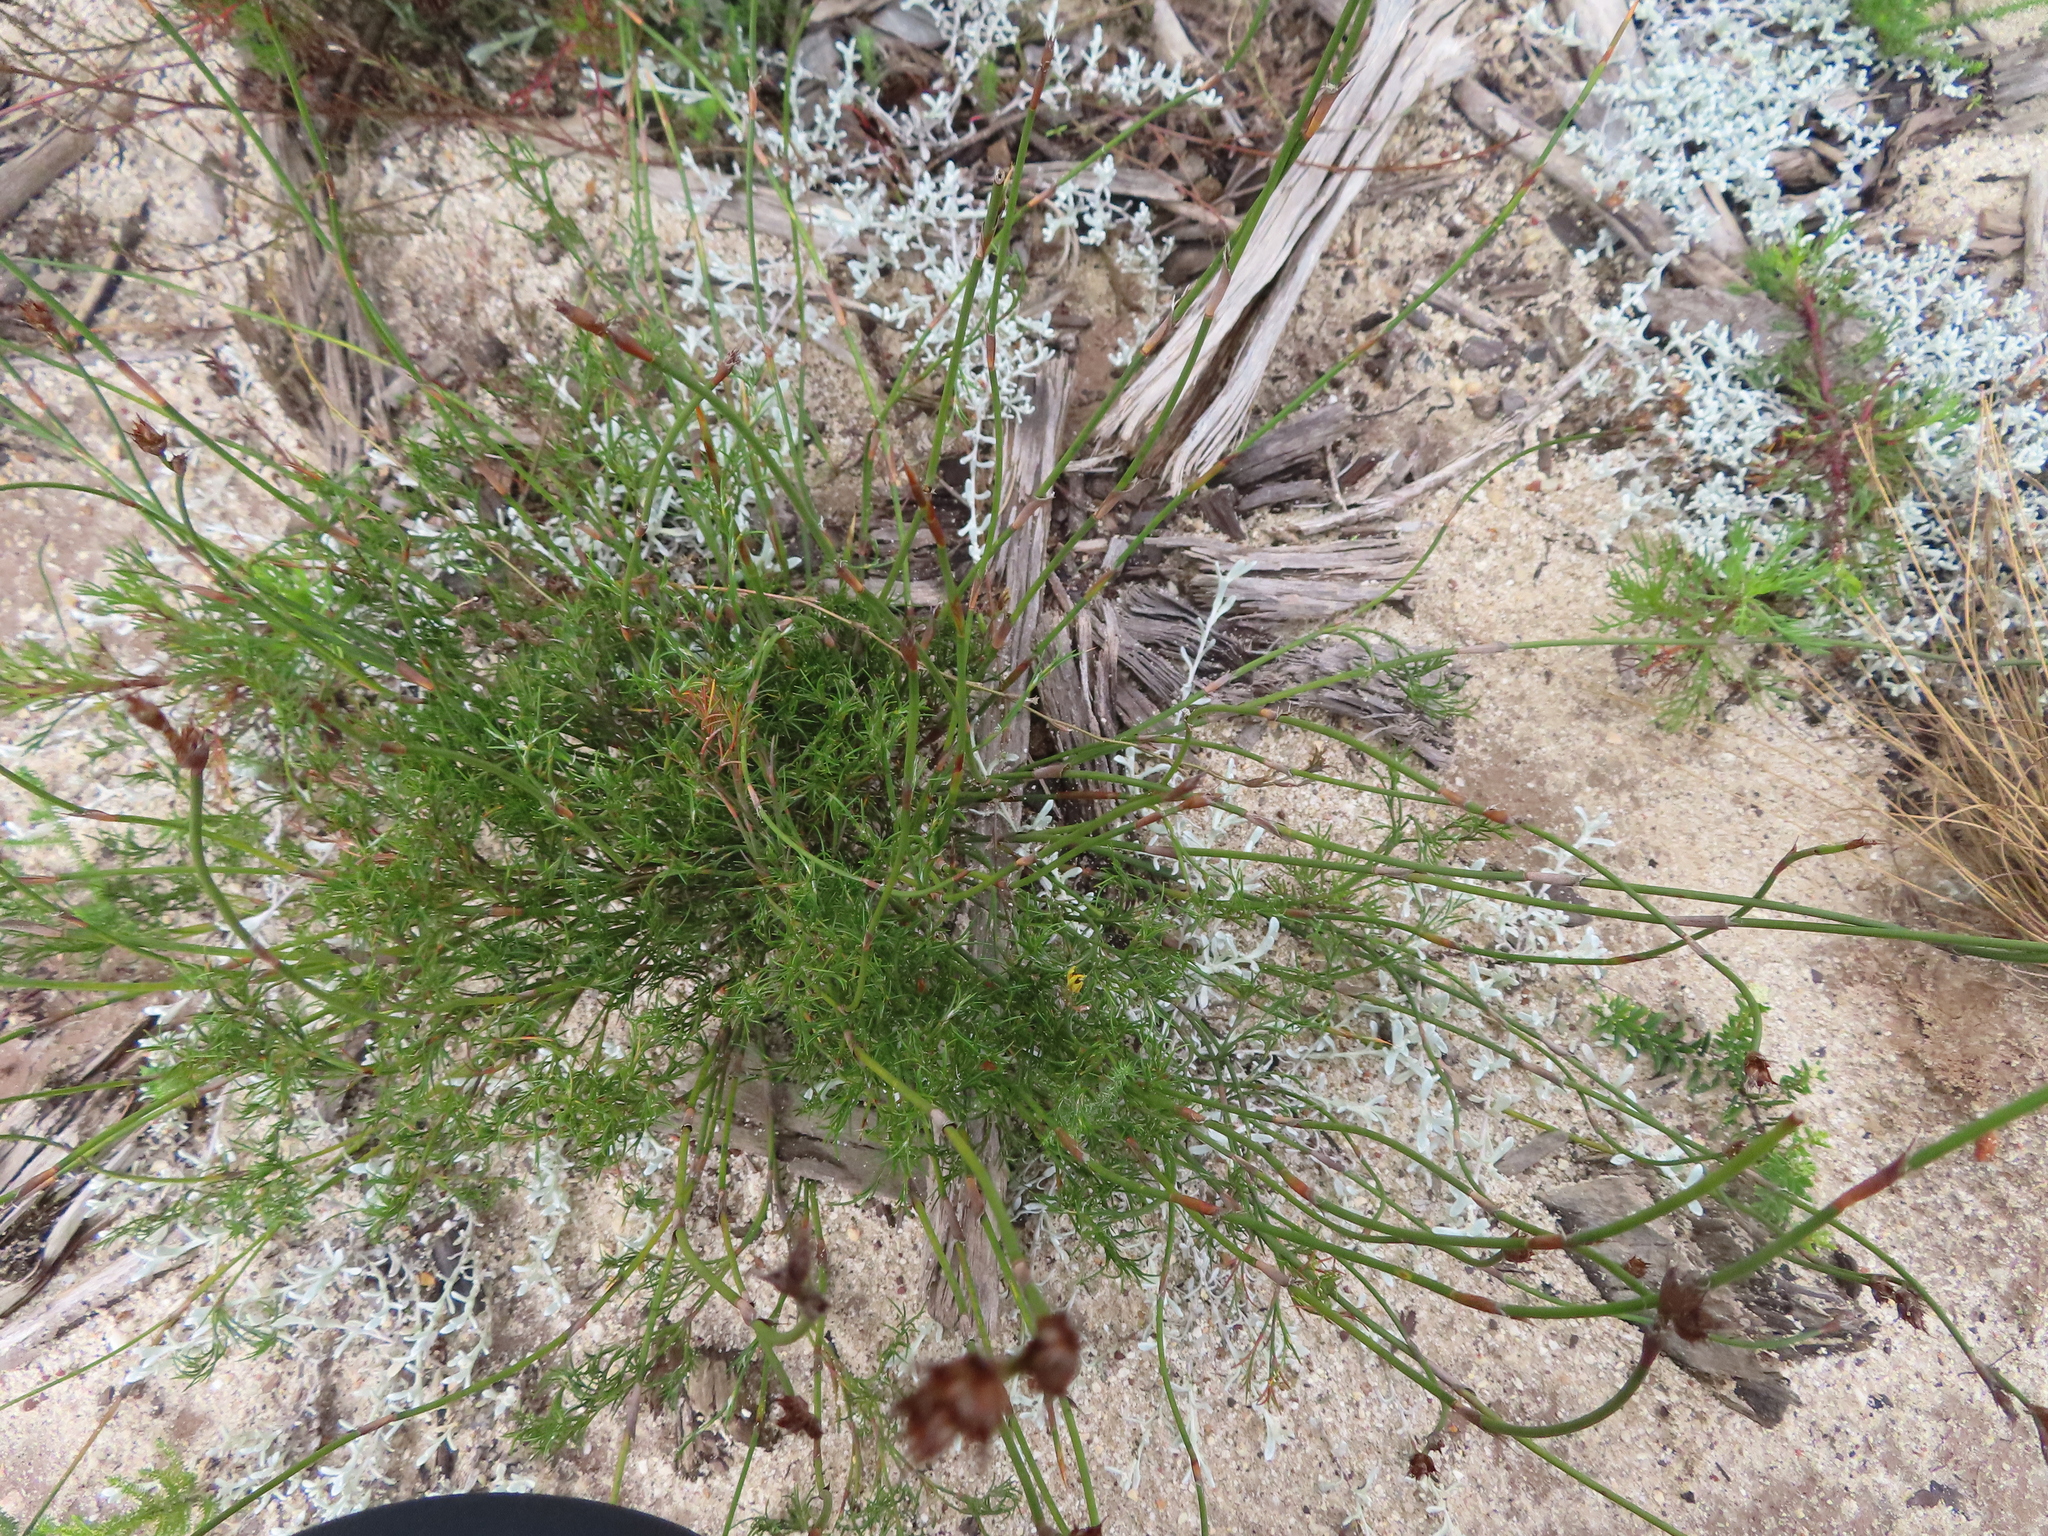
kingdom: Plantae
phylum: Tracheophyta
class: Liliopsida
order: Poales
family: Restionaceae
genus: Restio
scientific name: Restio capensis
